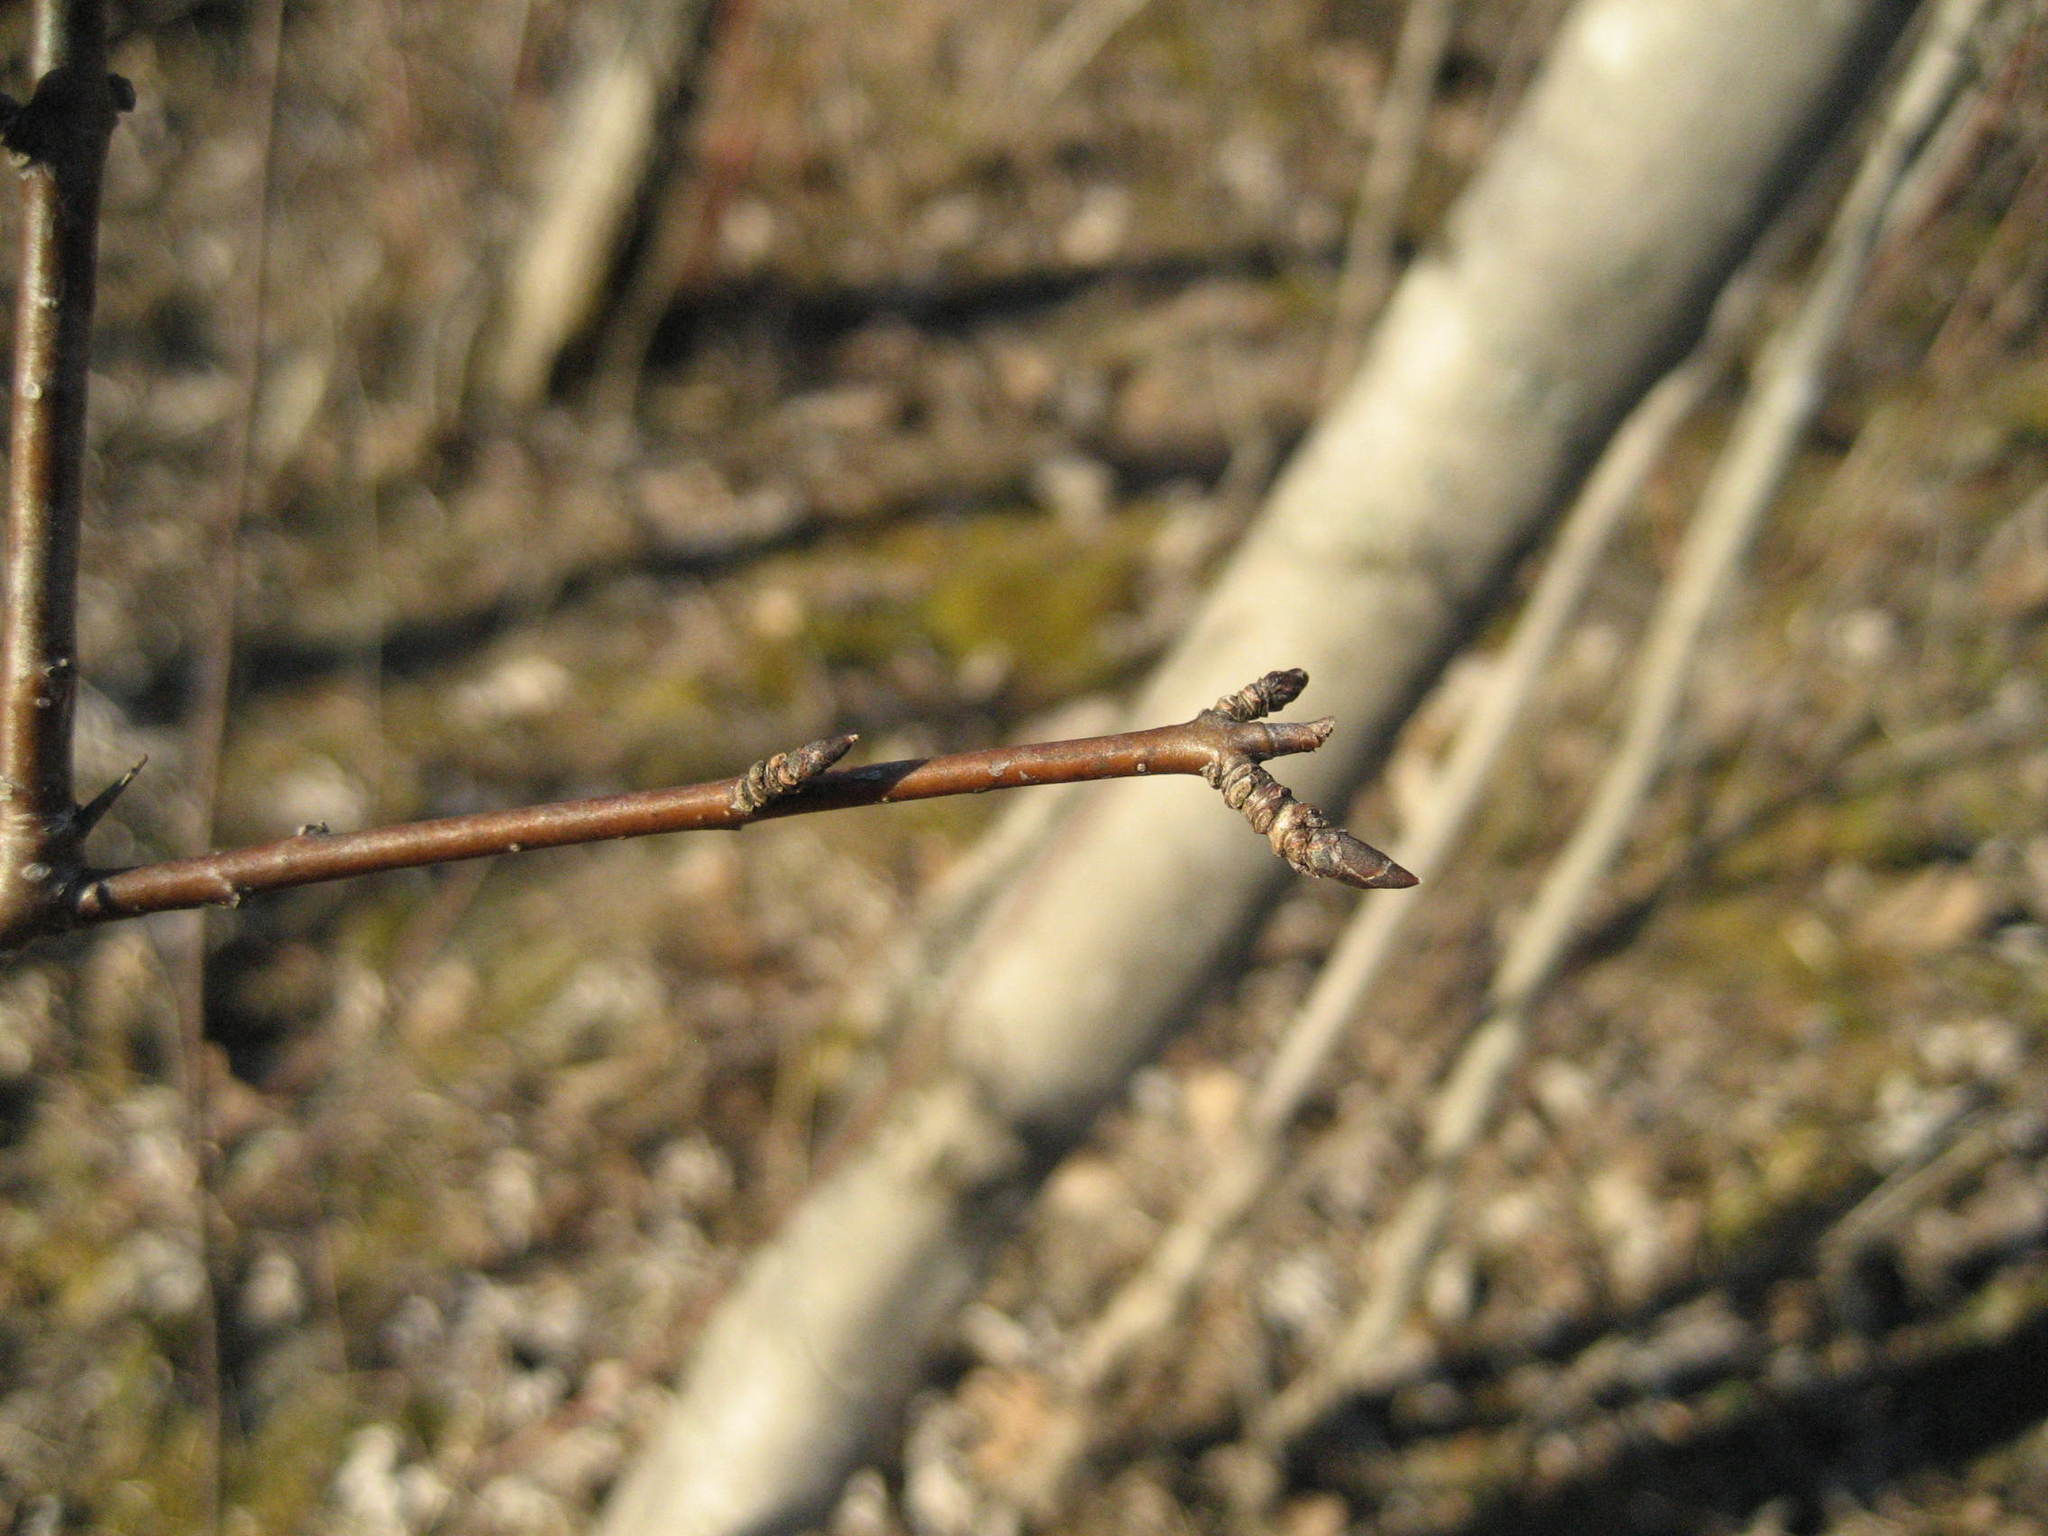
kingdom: Plantae
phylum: Tracheophyta
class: Magnoliopsida
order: Rosales
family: Rhamnaceae
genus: Rhamnus
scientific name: Rhamnus cathartica
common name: Common buckthorn
